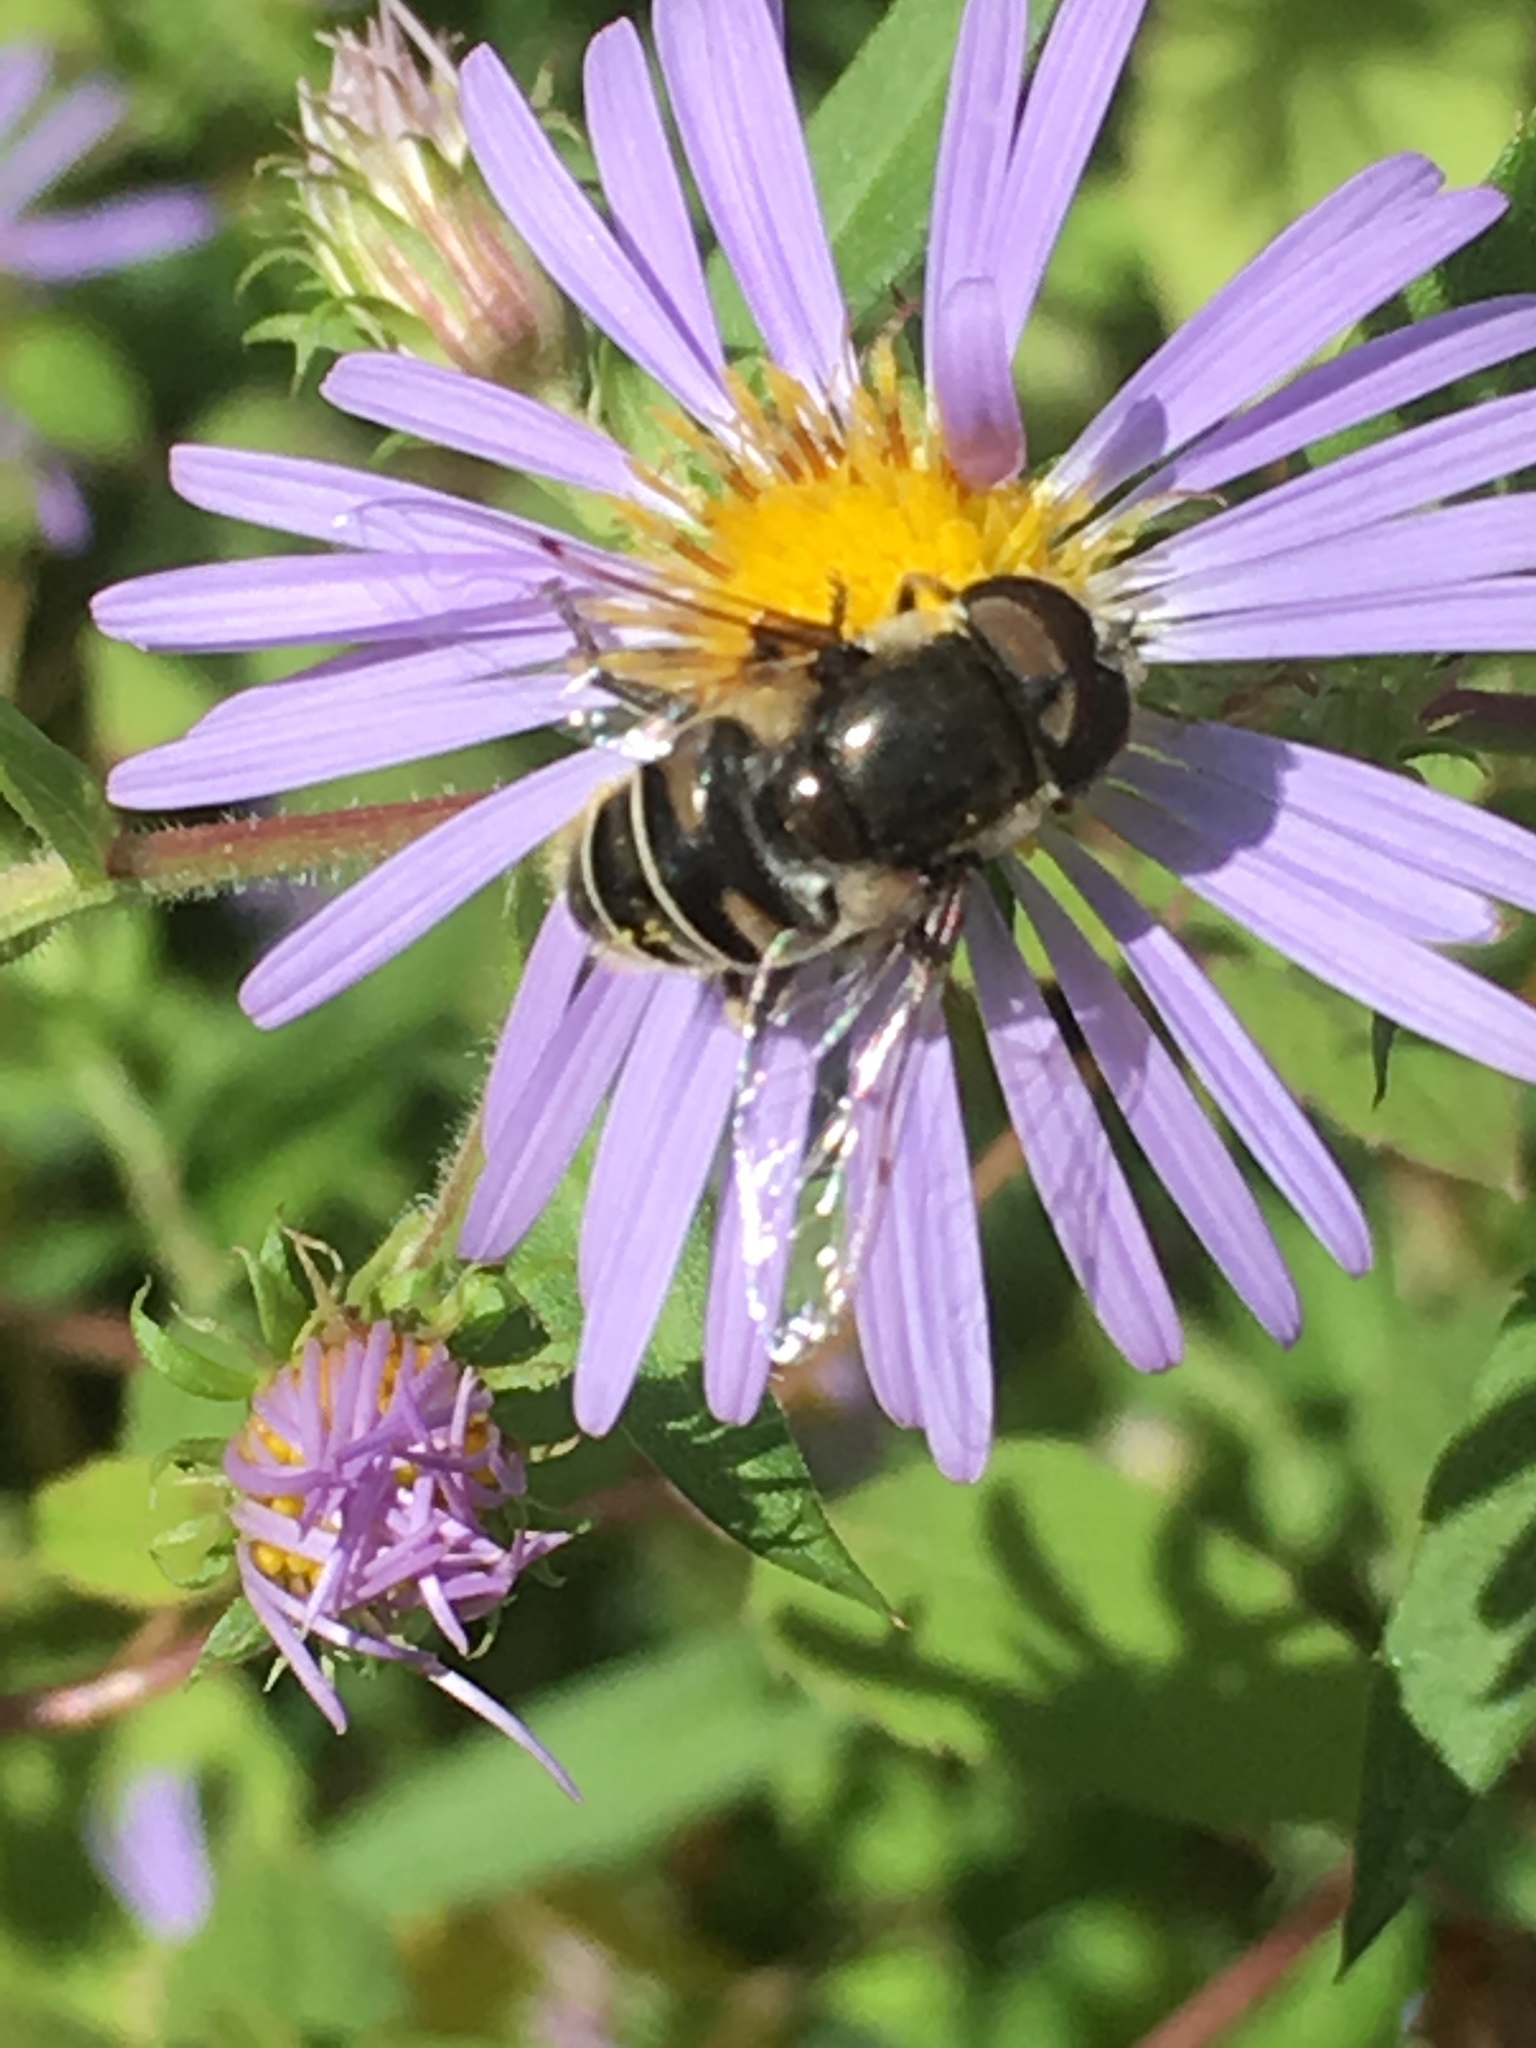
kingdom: Animalia
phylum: Arthropoda
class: Insecta
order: Diptera
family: Syrphidae
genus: Eristalis
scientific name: Eristalis dimidiata
